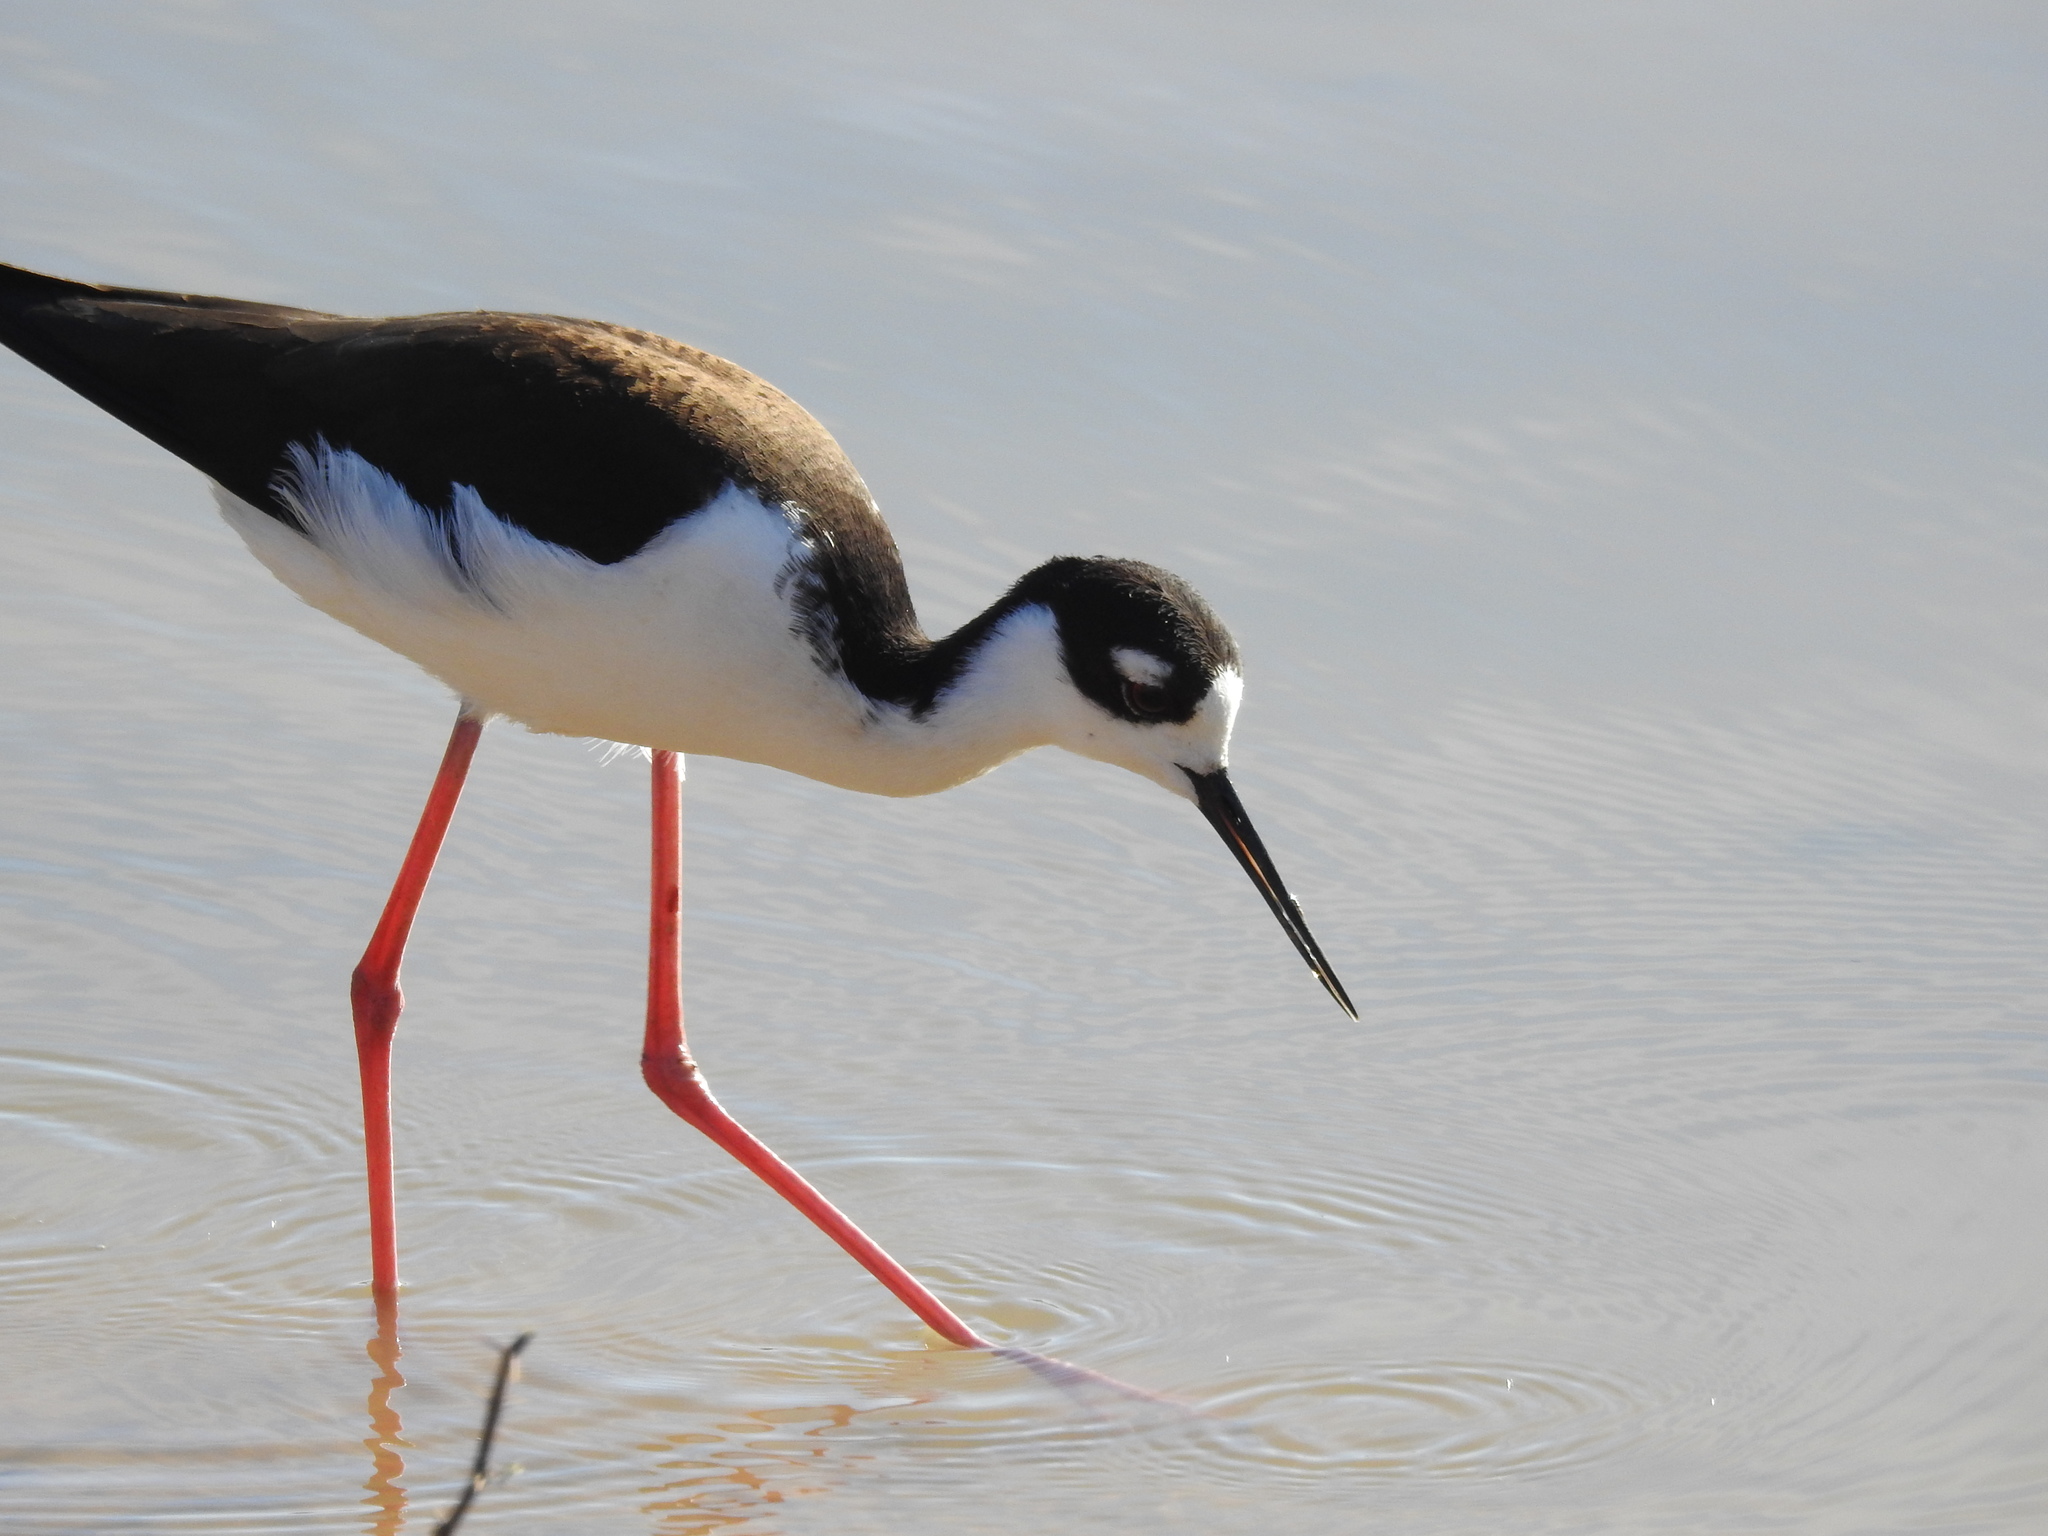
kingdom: Animalia
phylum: Chordata
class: Aves
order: Charadriiformes
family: Recurvirostridae
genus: Himantopus
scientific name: Himantopus mexicanus
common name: Black-necked stilt
